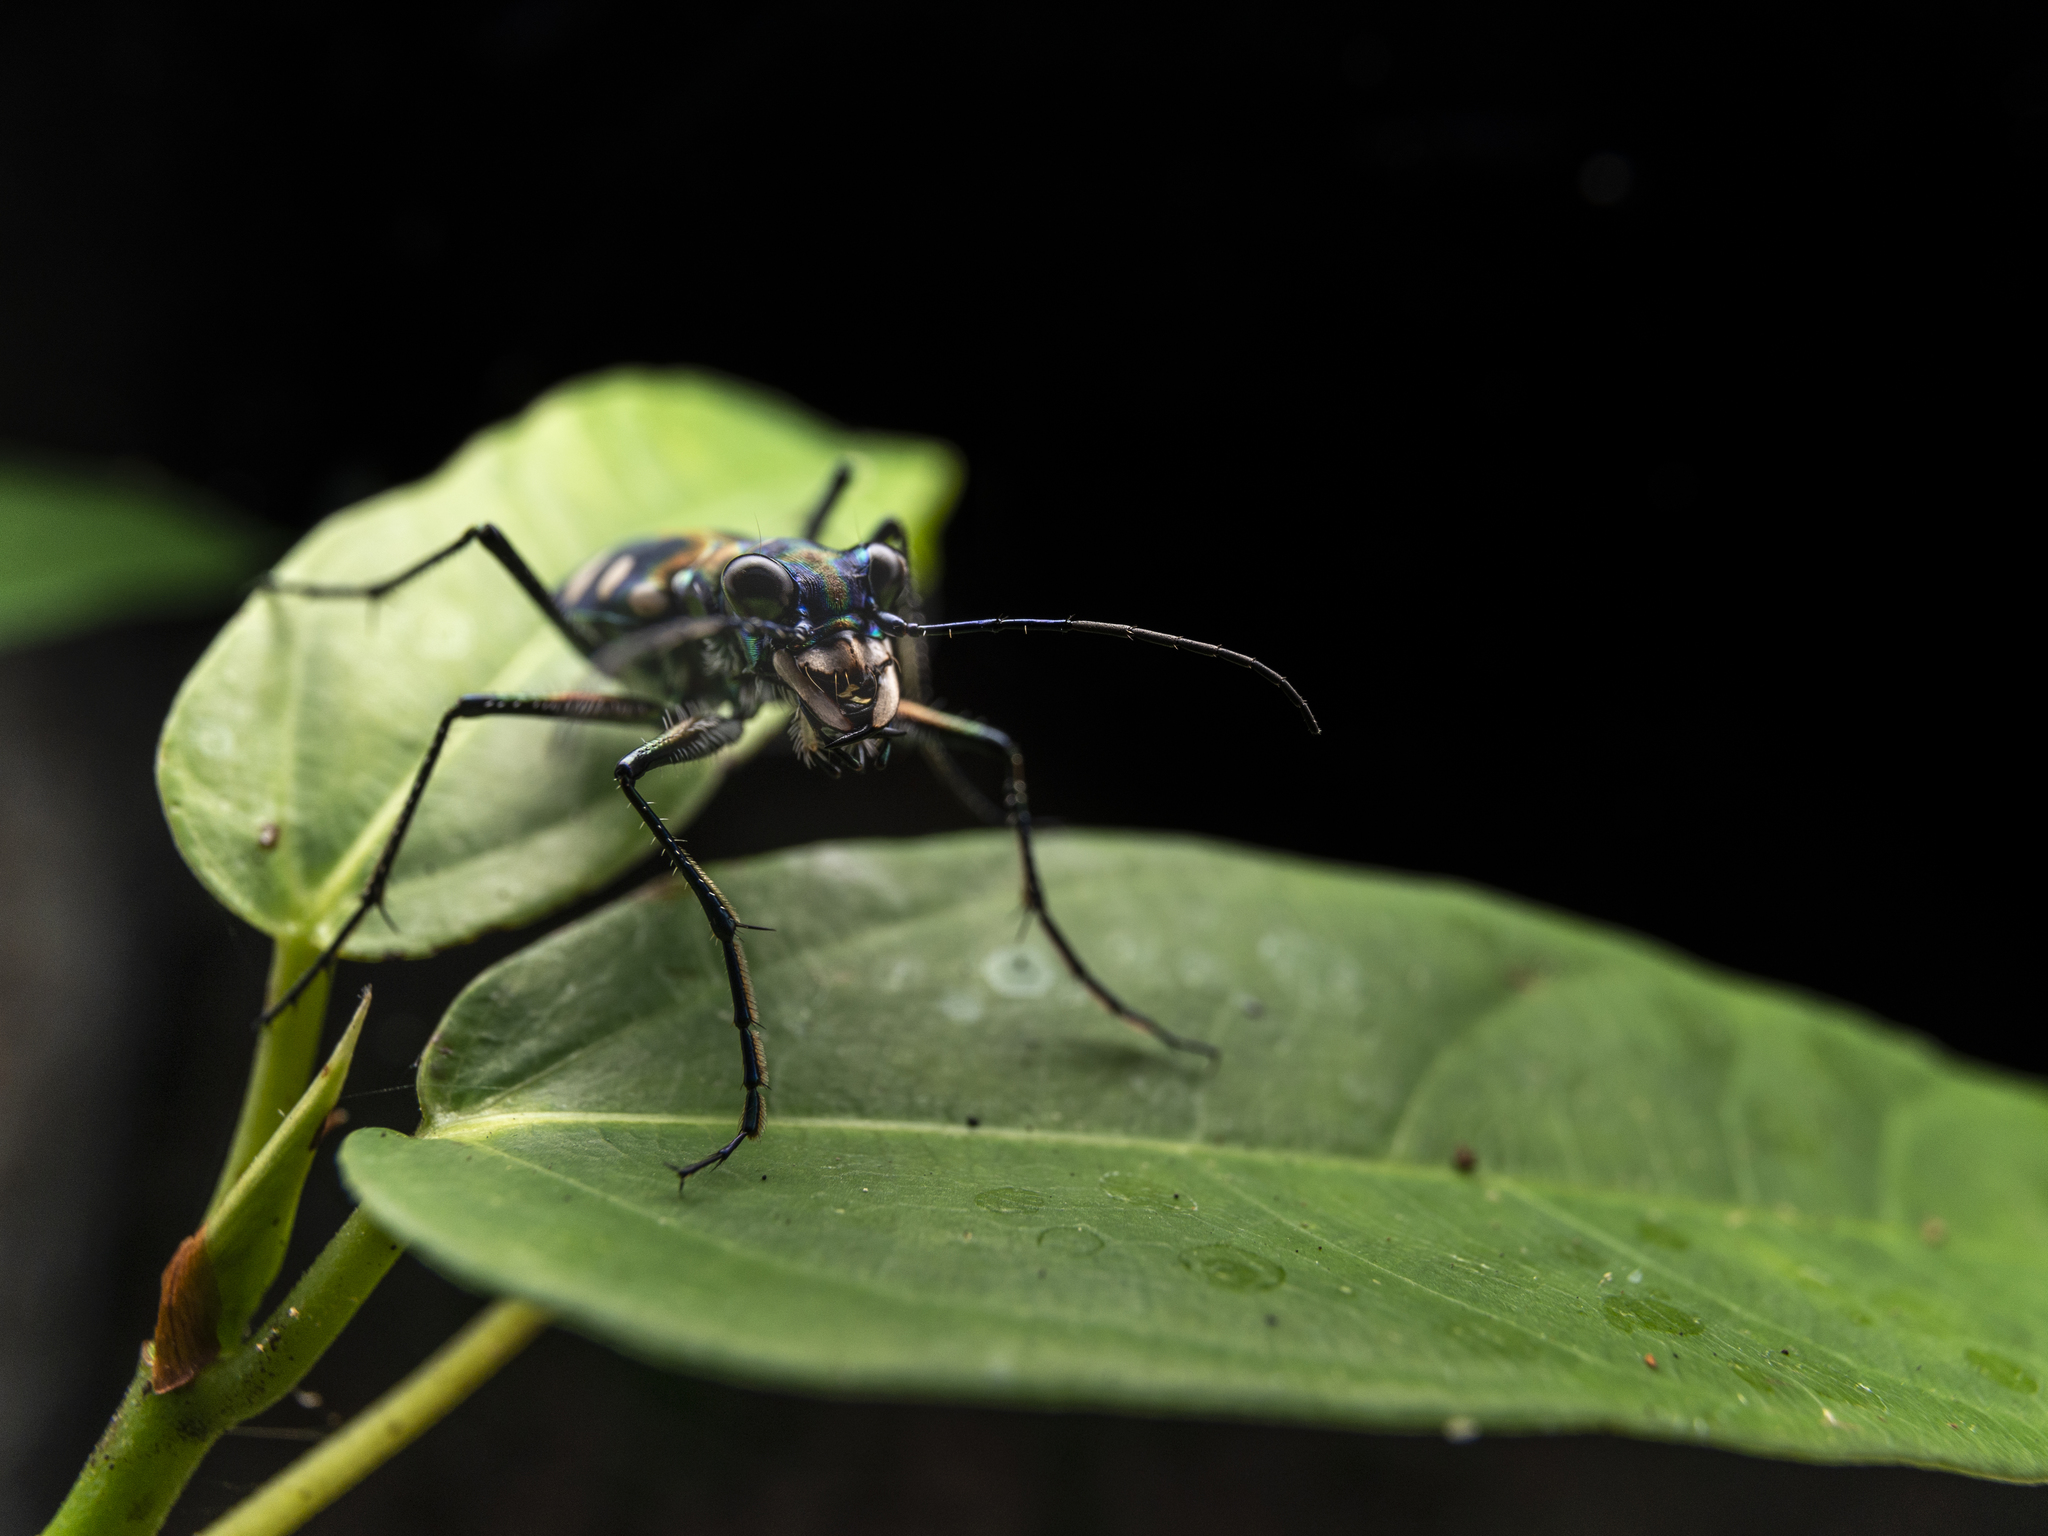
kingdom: Animalia
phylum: Arthropoda
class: Insecta
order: Coleoptera
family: Carabidae
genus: Cicindela
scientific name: Cicindela aurulenta
